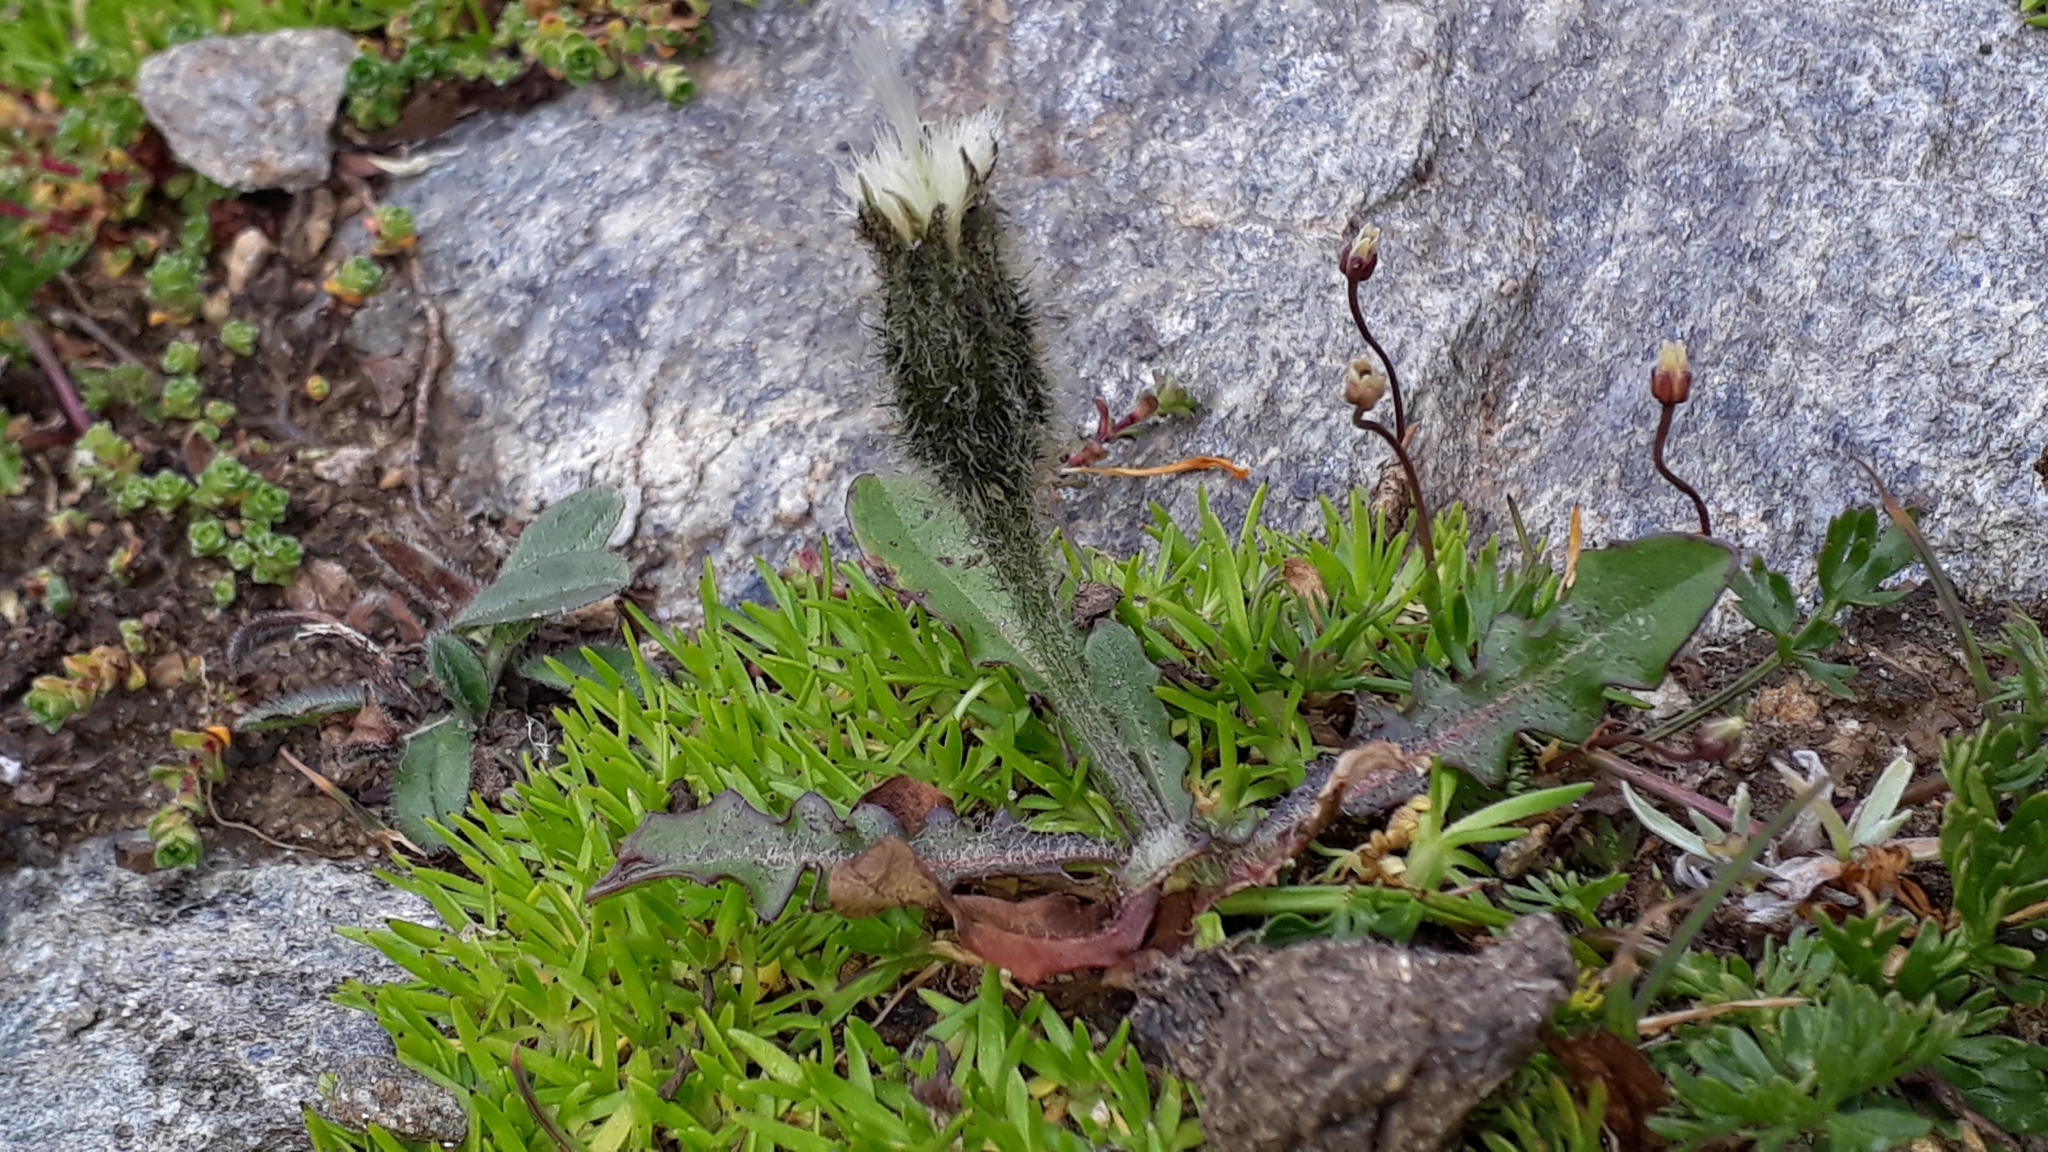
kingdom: Plantae
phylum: Tracheophyta
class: Magnoliopsida
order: Asterales
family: Asteraceae
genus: Scorzoneroides
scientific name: Scorzoneroides montana
